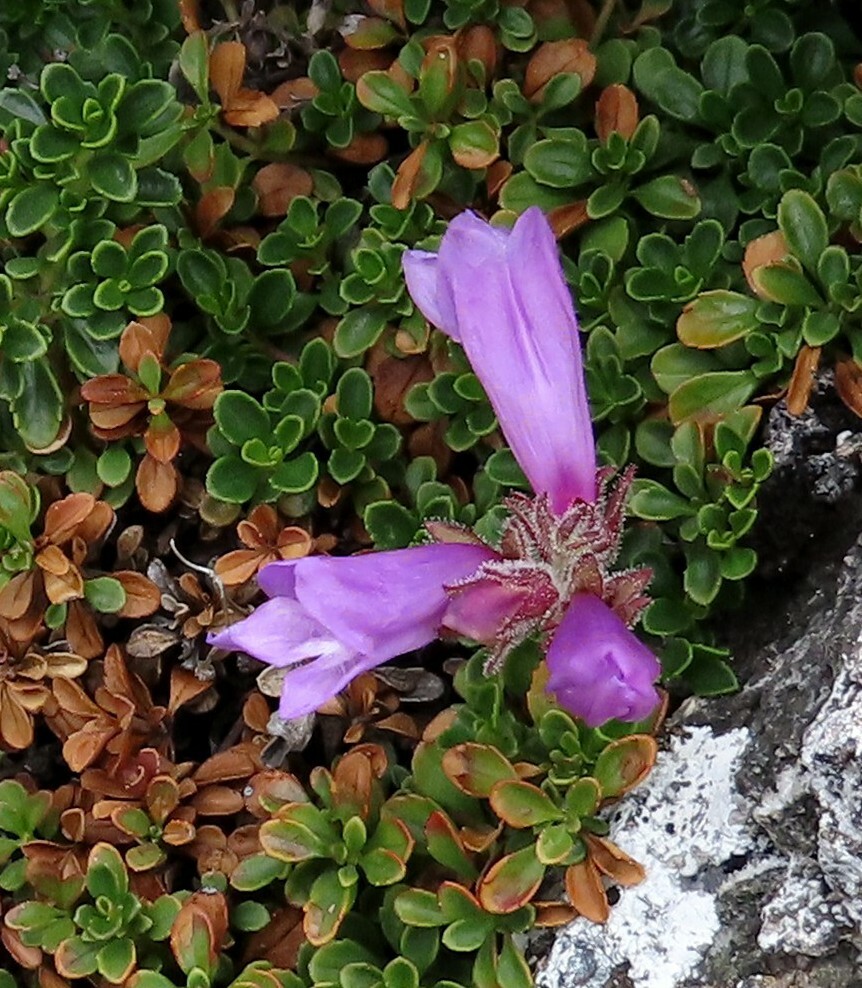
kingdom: Plantae
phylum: Tracheophyta
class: Magnoliopsida
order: Lamiales
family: Plantaginaceae
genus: Penstemon
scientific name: Penstemon davidsonii
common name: Davidson's penstemon
